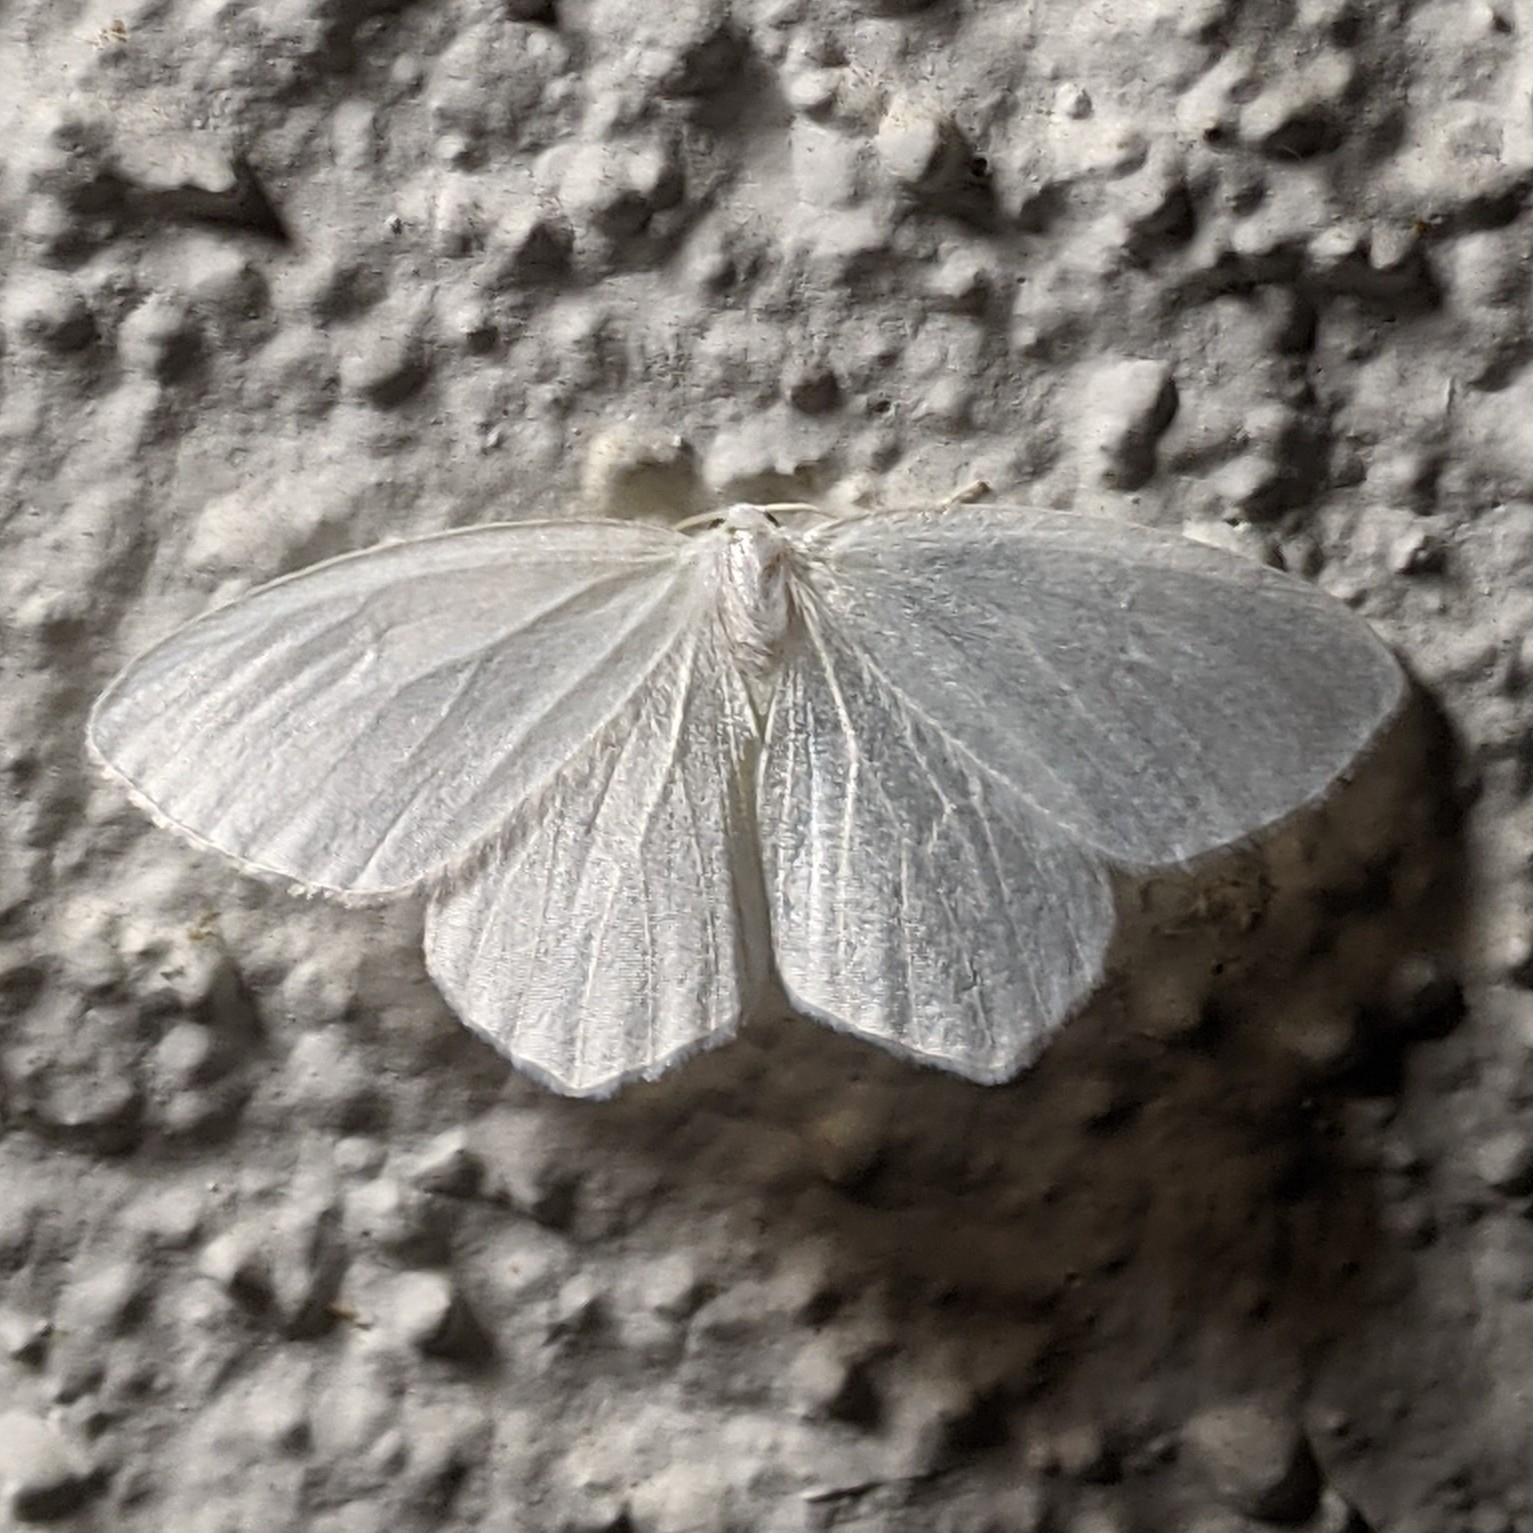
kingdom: Animalia
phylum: Arthropoda
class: Insecta
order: Lepidoptera
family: Geometridae
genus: Eugonobapta
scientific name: Eugonobapta nivosaria
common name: Snowy geometer
